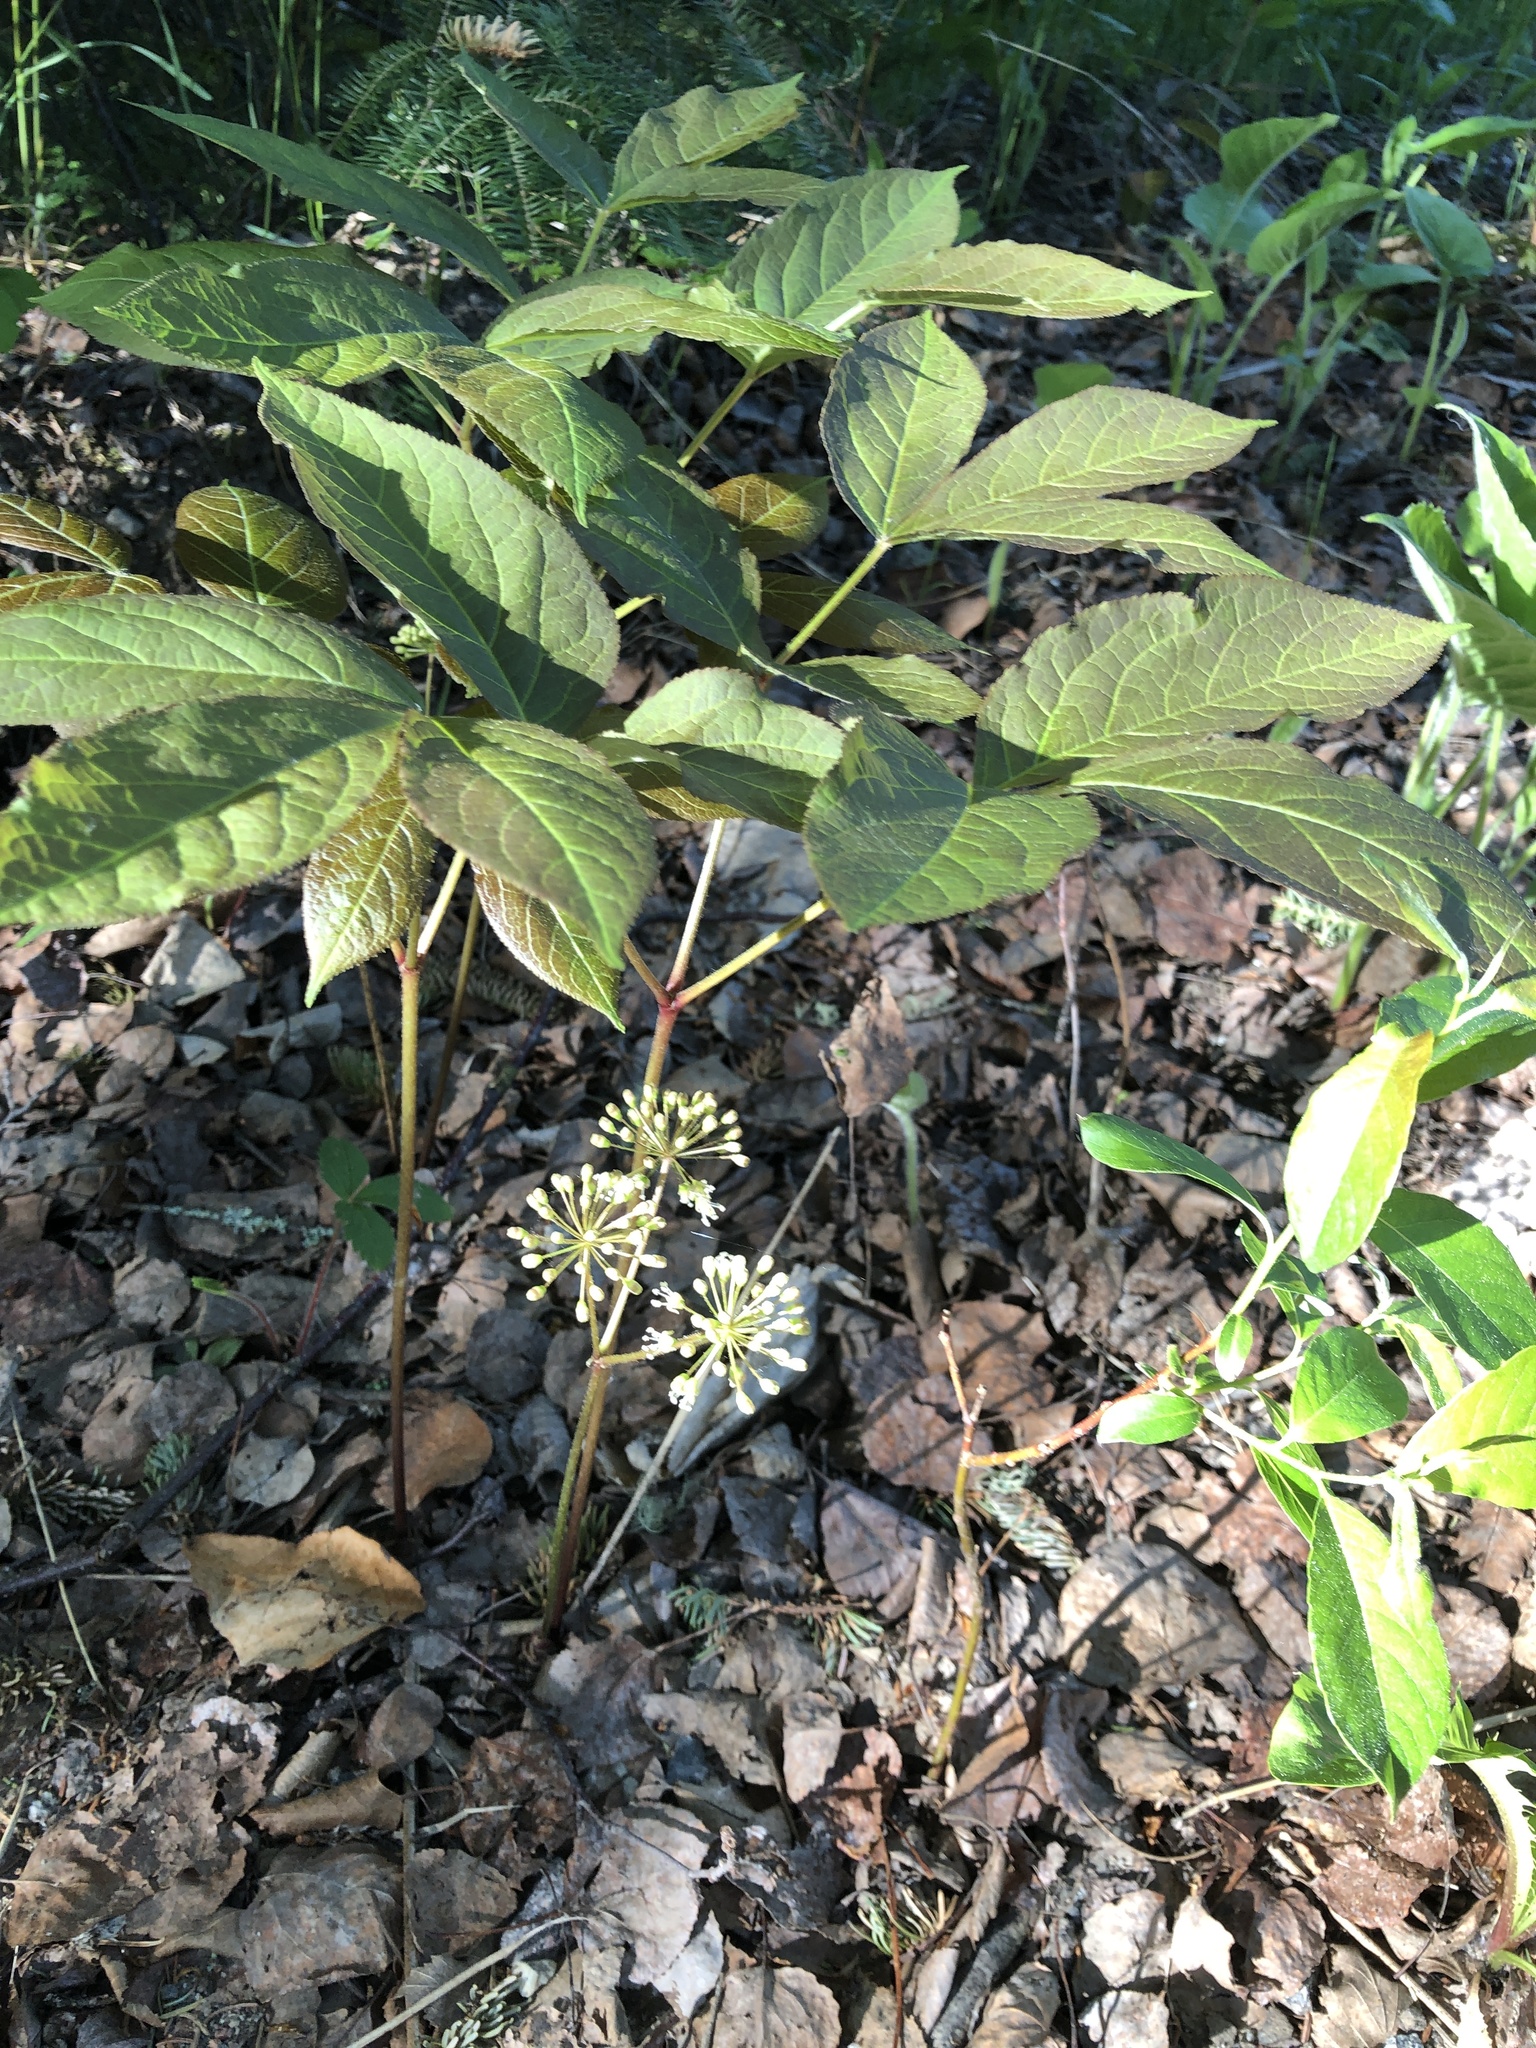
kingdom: Plantae
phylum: Tracheophyta
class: Magnoliopsida
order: Apiales
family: Araliaceae
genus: Aralia
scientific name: Aralia nudicaulis
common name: Wild sarsaparilla
